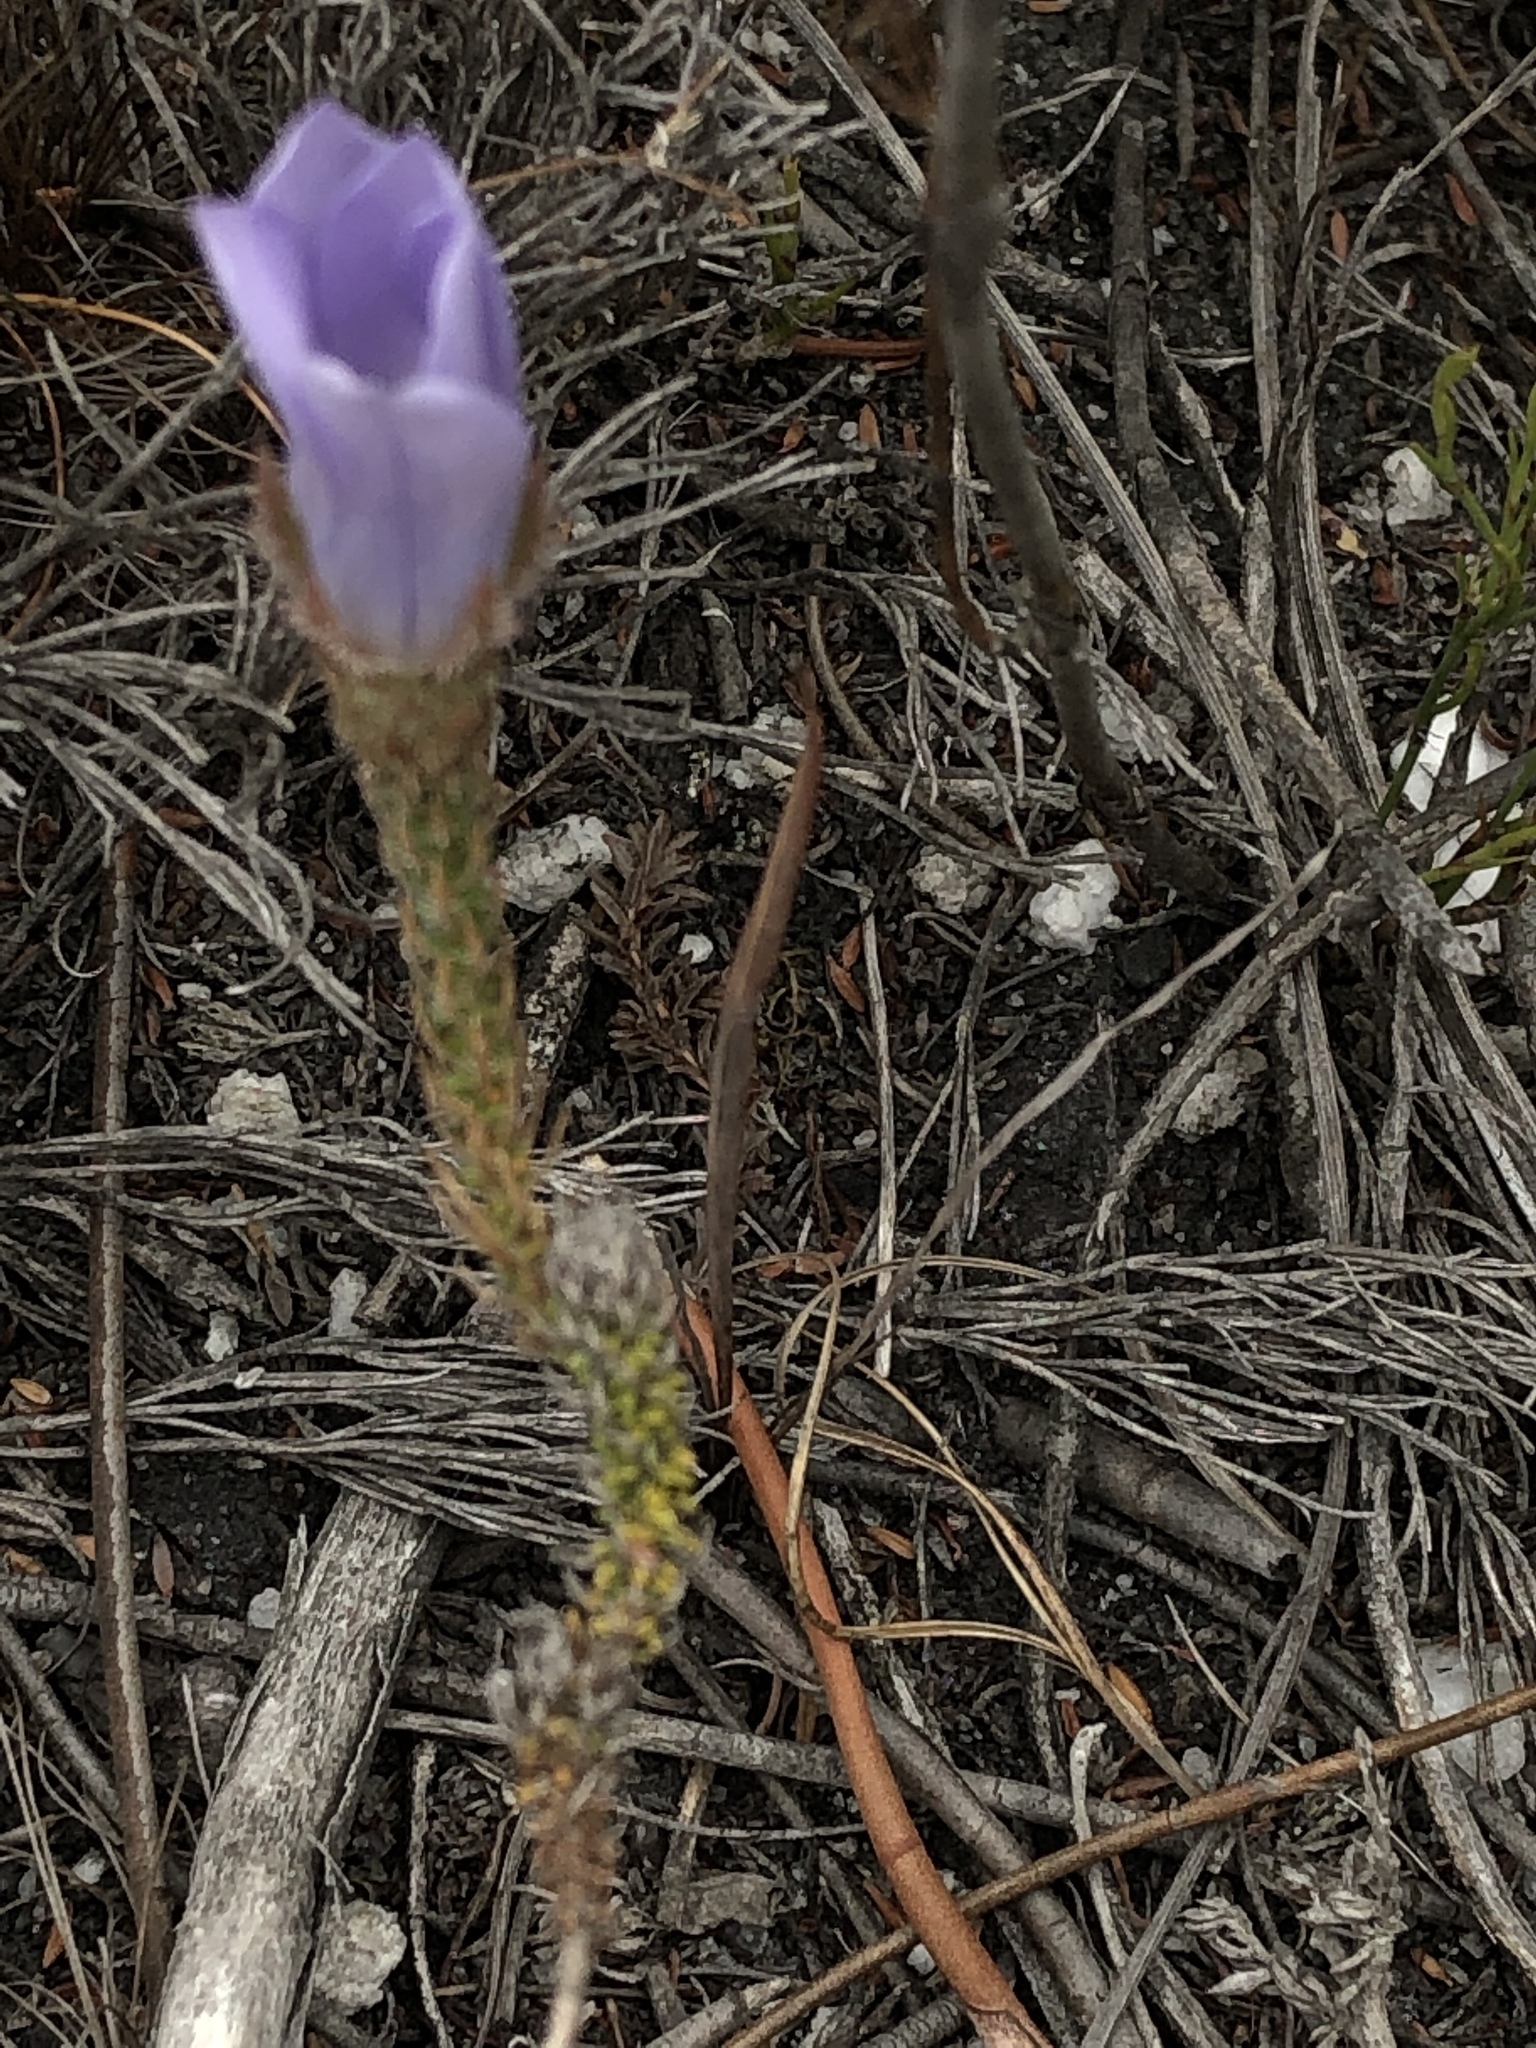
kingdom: Plantae
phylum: Tracheophyta
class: Magnoliopsida
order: Asterales
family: Campanulaceae
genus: Roella
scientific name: Roella dregeana
